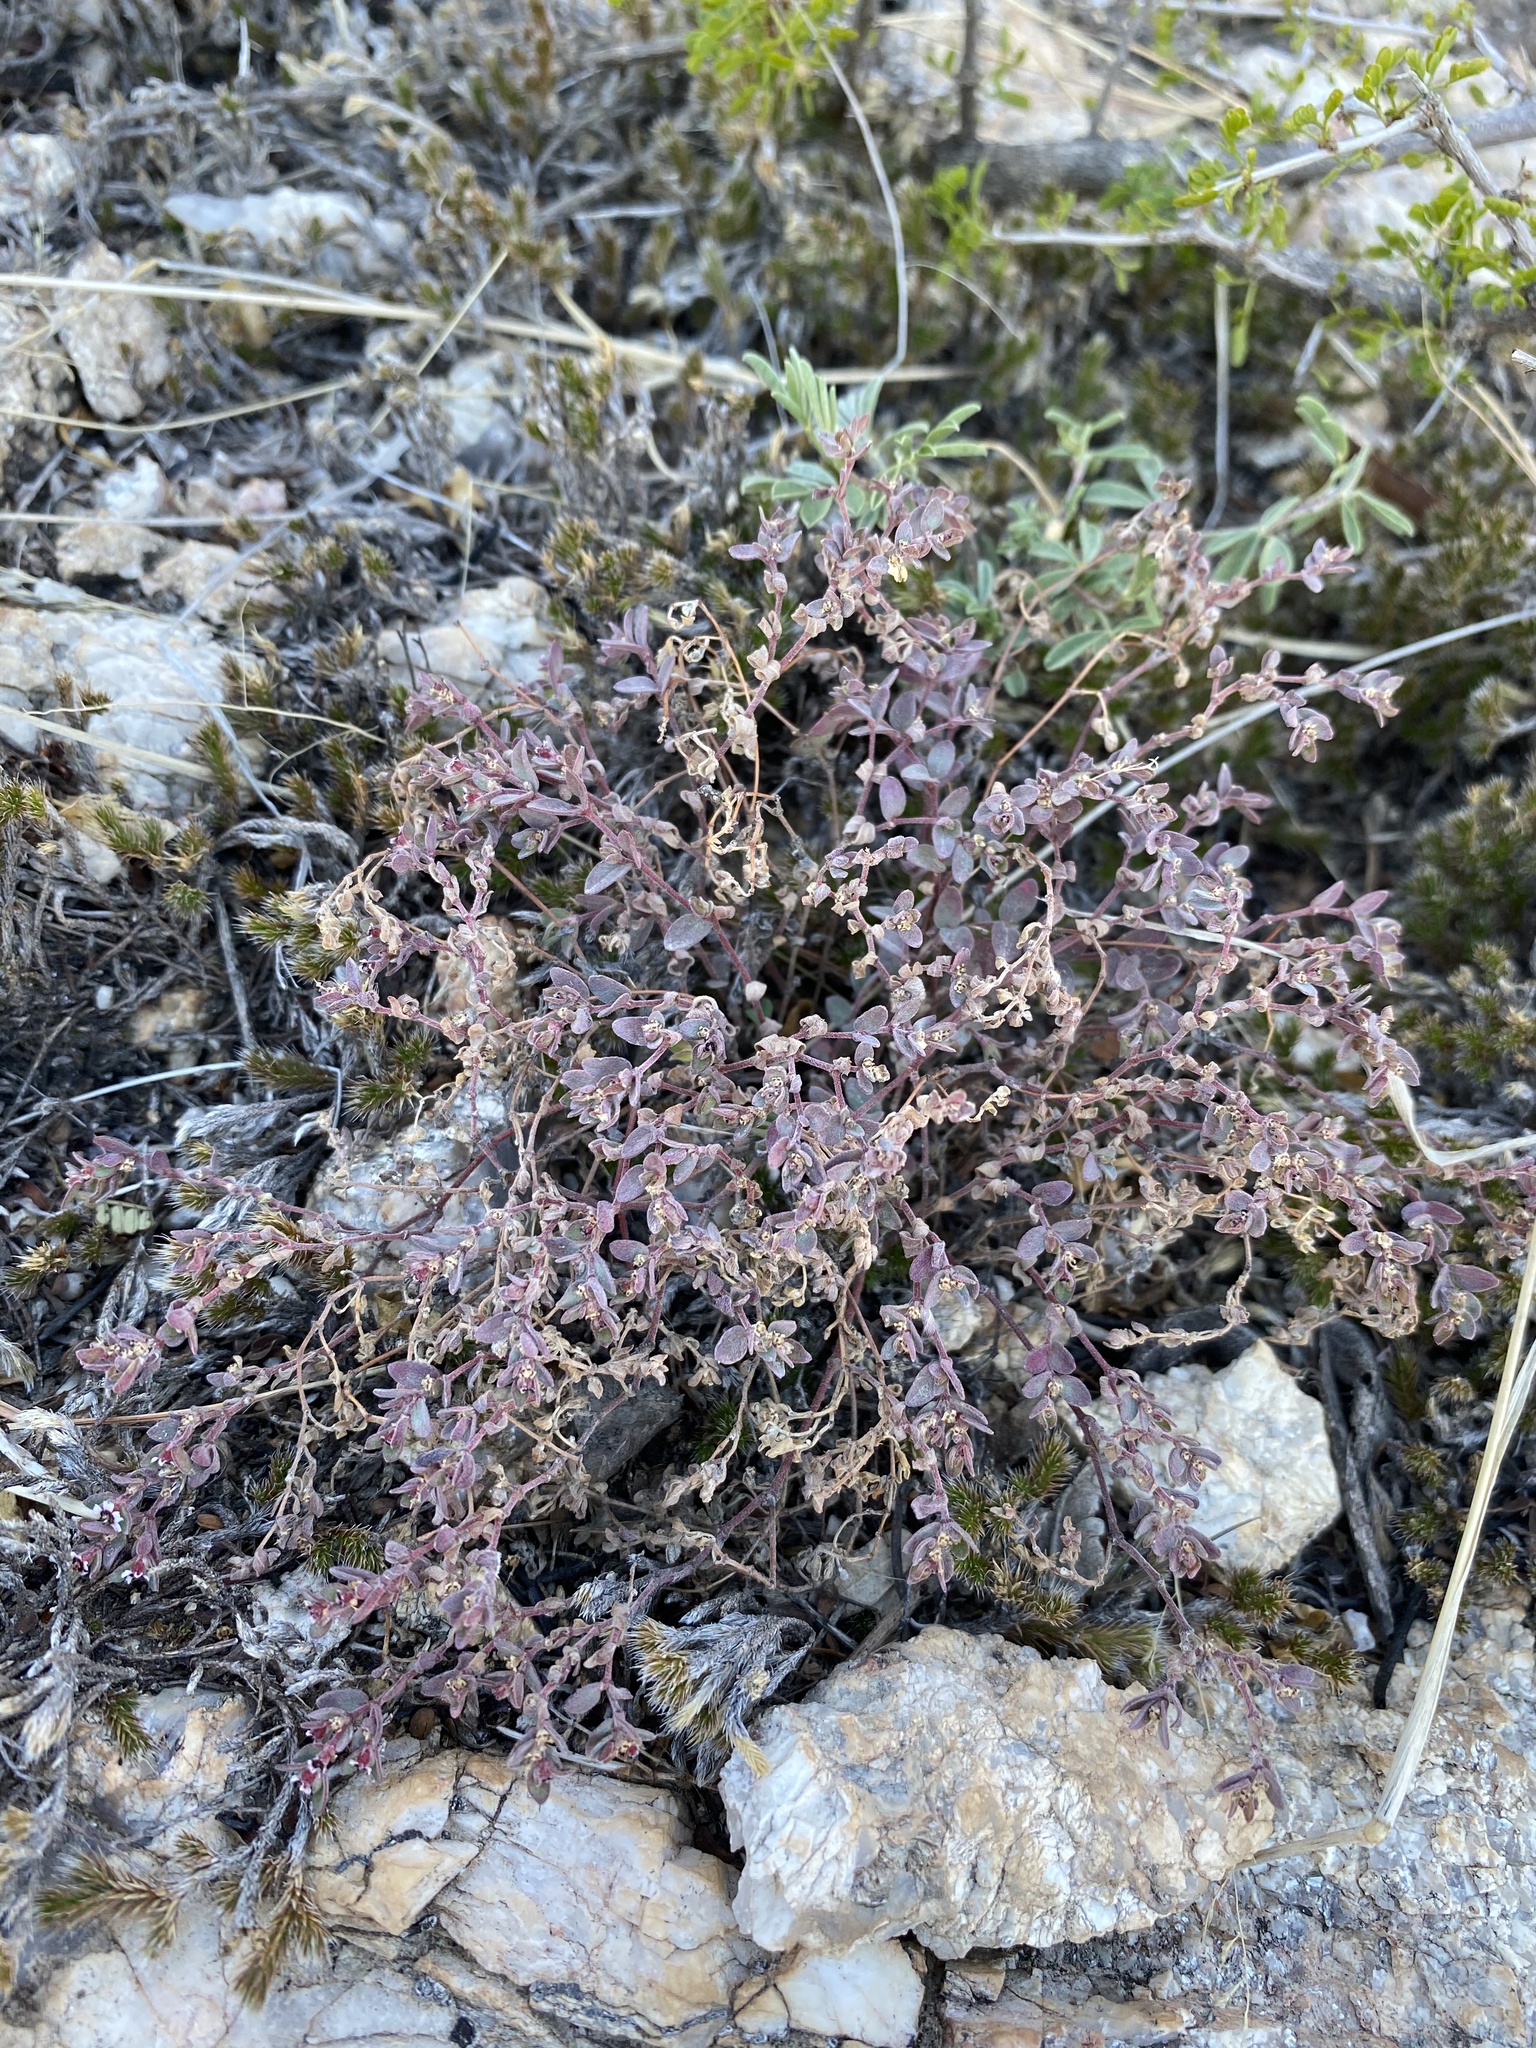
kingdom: Plantae
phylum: Tracheophyta
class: Magnoliopsida
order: Malpighiales
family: Euphorbiaceae
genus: Euphorbia
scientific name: Euphorbia melanadenia
